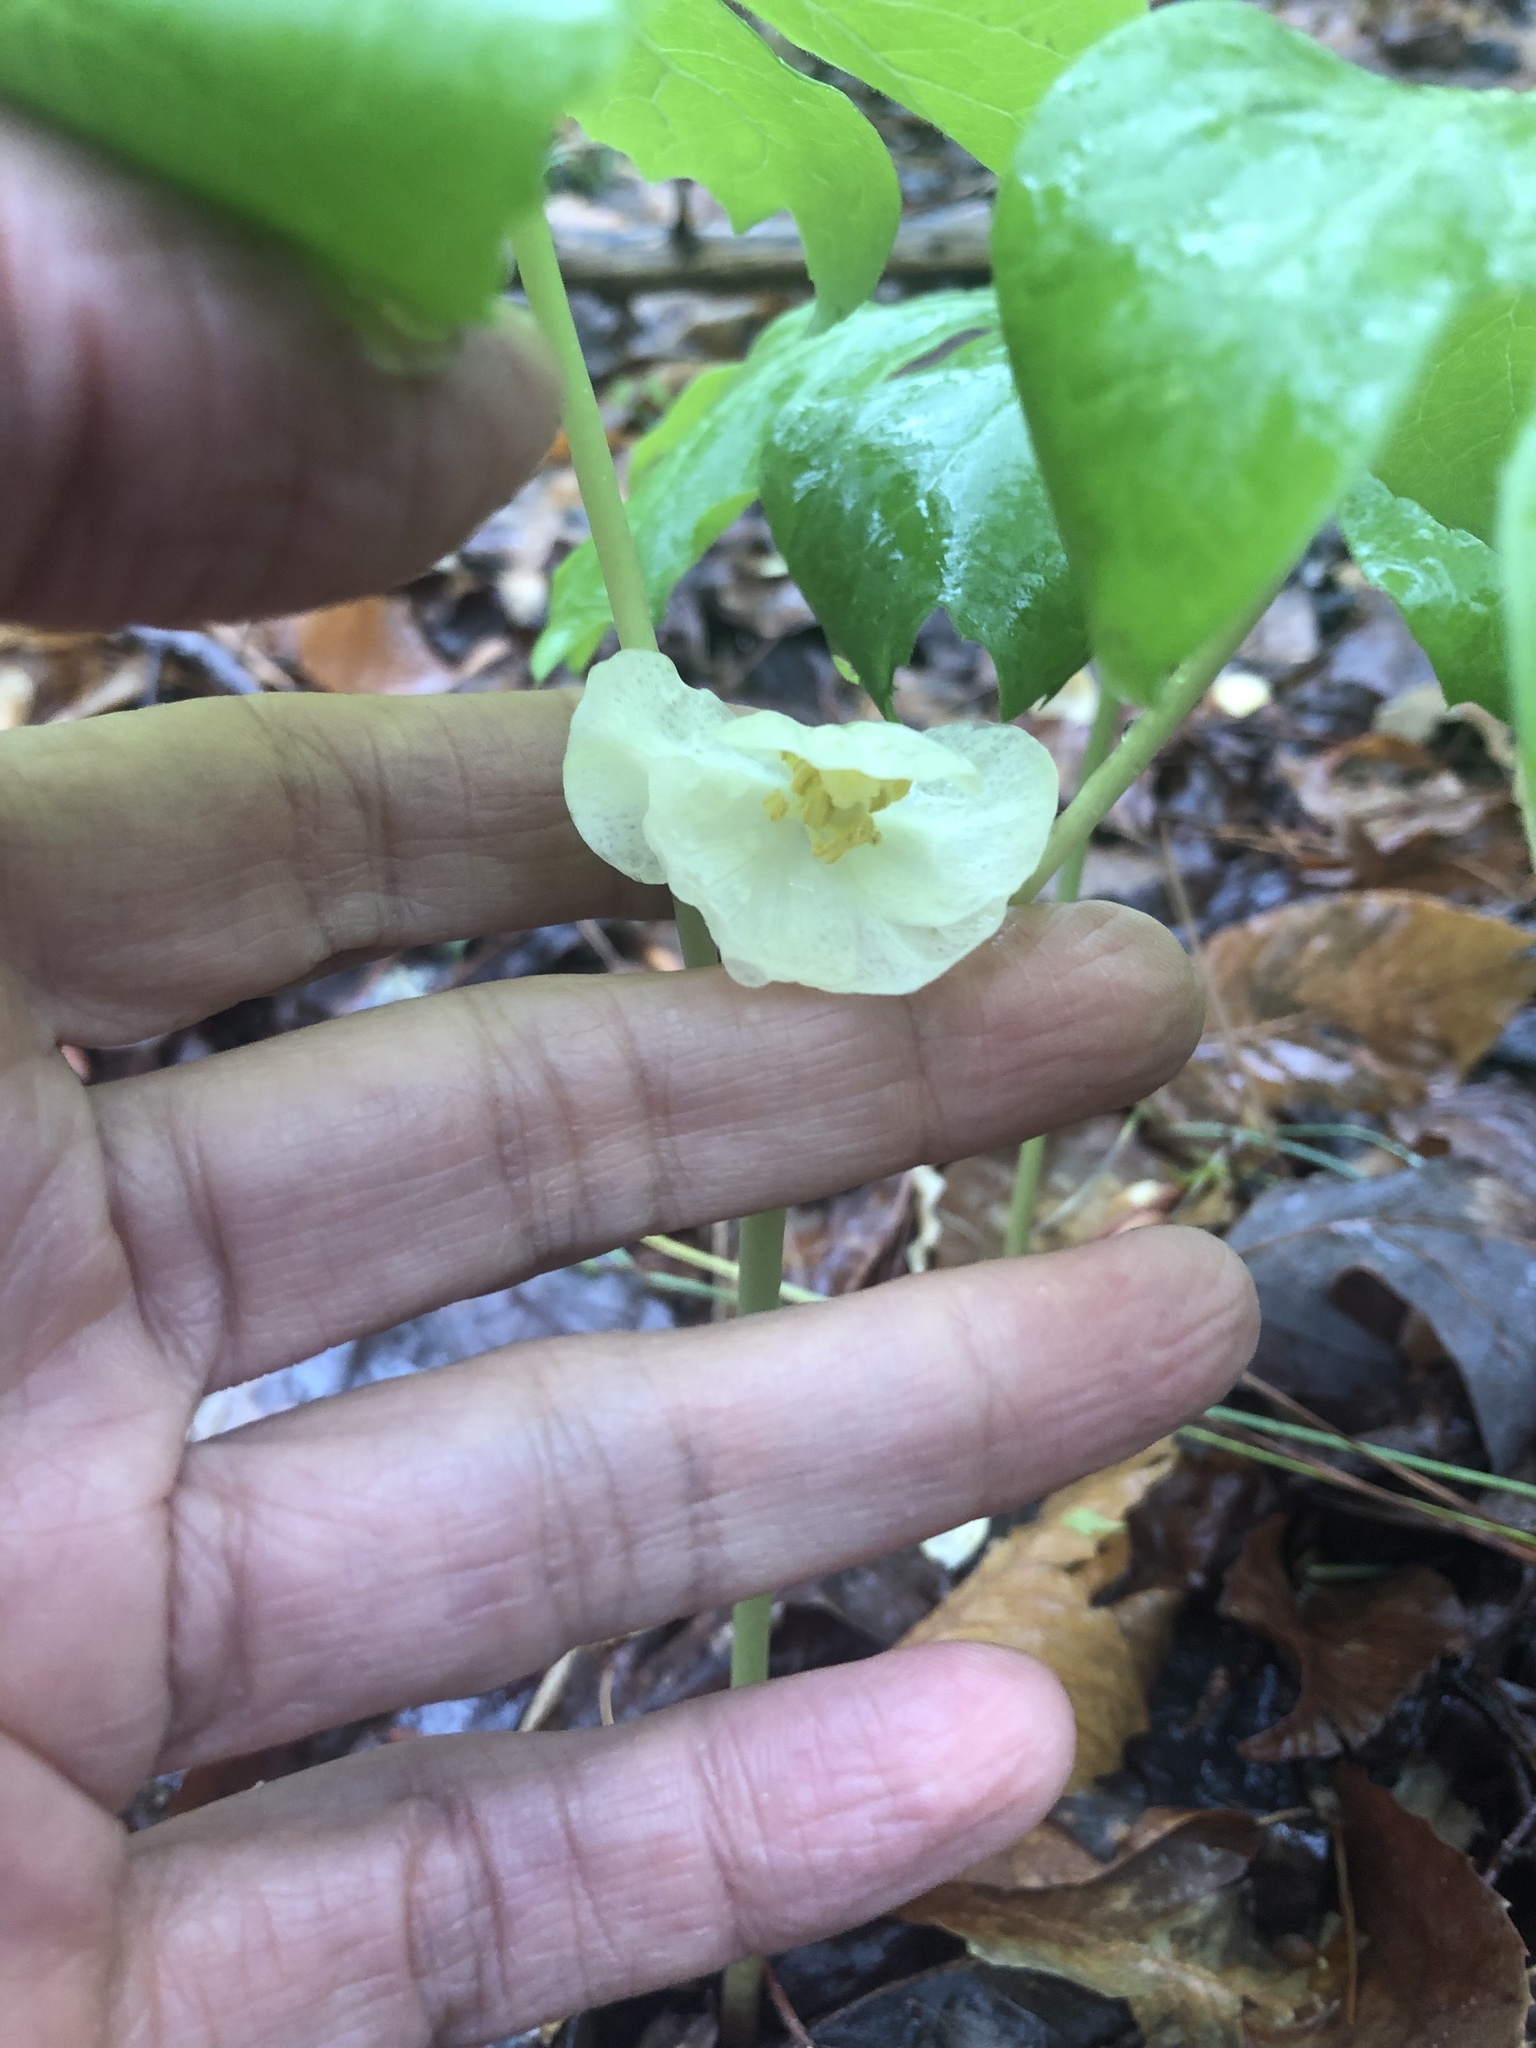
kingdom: Plantae
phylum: Tracheophyta
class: Magnoliopsida
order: Ranunculales
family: Berberidaceae
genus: Podophyllum
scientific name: Podophyllum peltatum
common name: Wild mandrake
